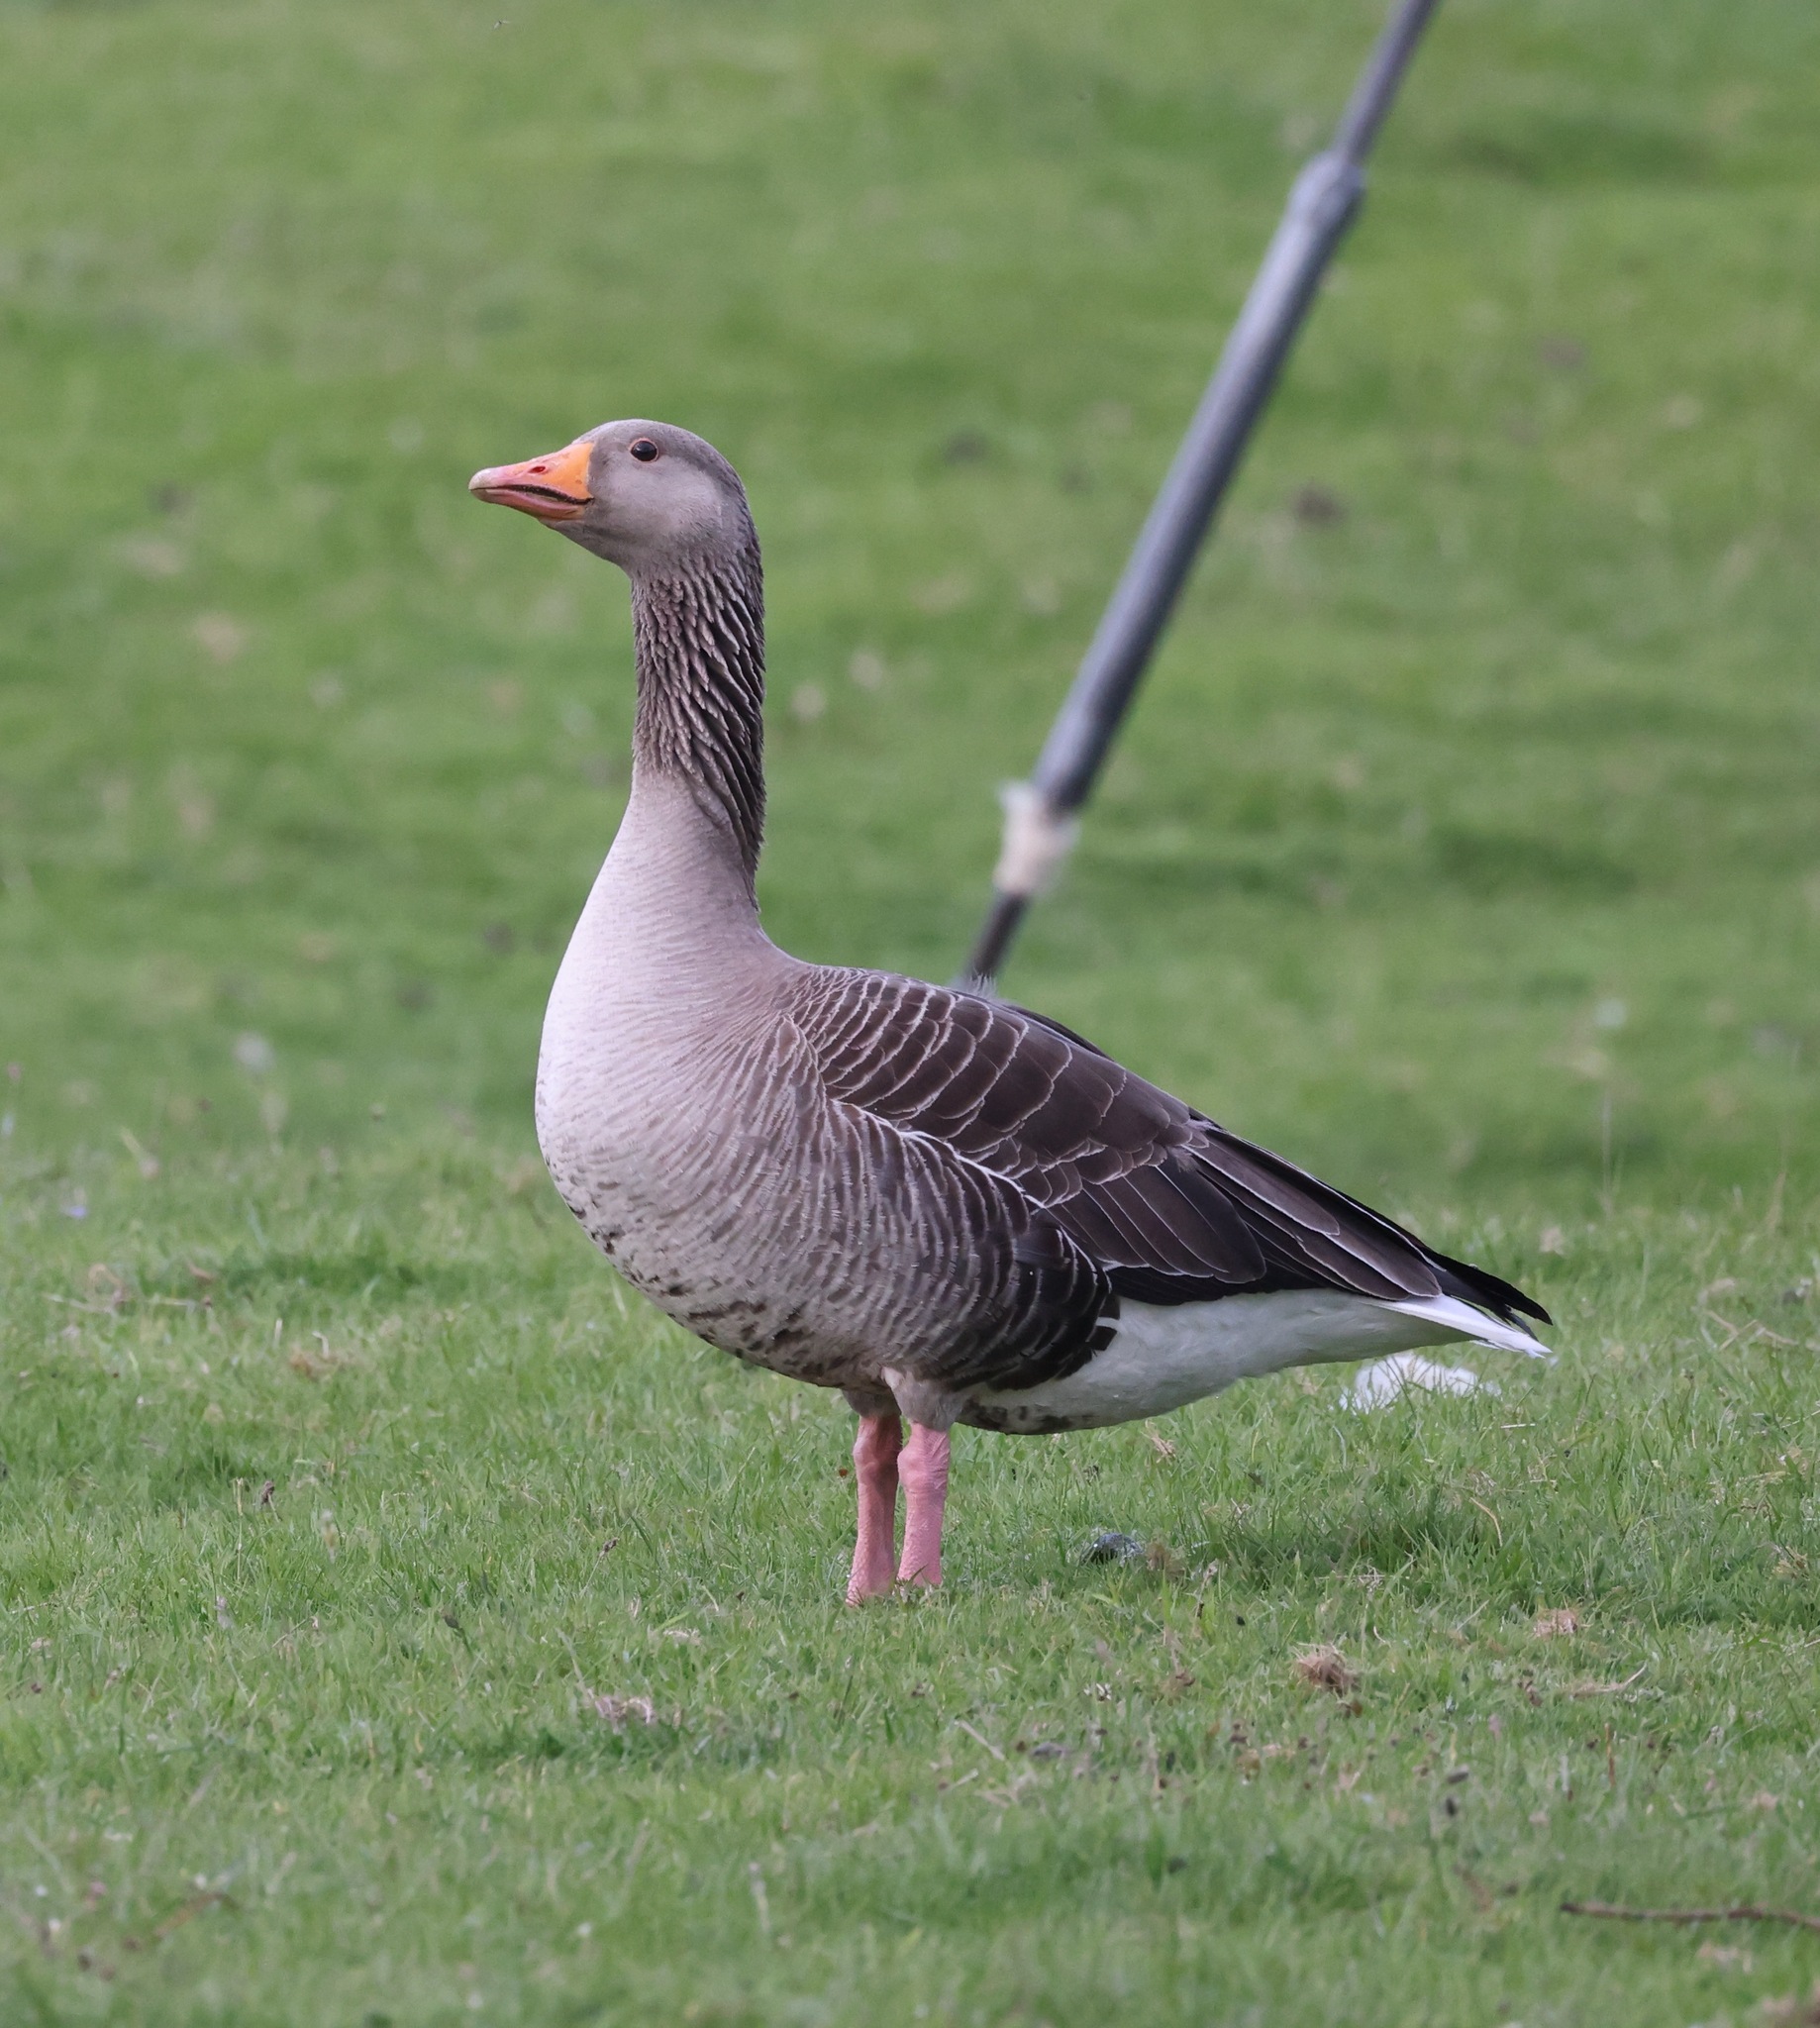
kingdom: Animalia
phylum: Chordata
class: Aves
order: Anseriformes
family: Anatidae
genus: Anser
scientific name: Anser anser
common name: Greylag goose
